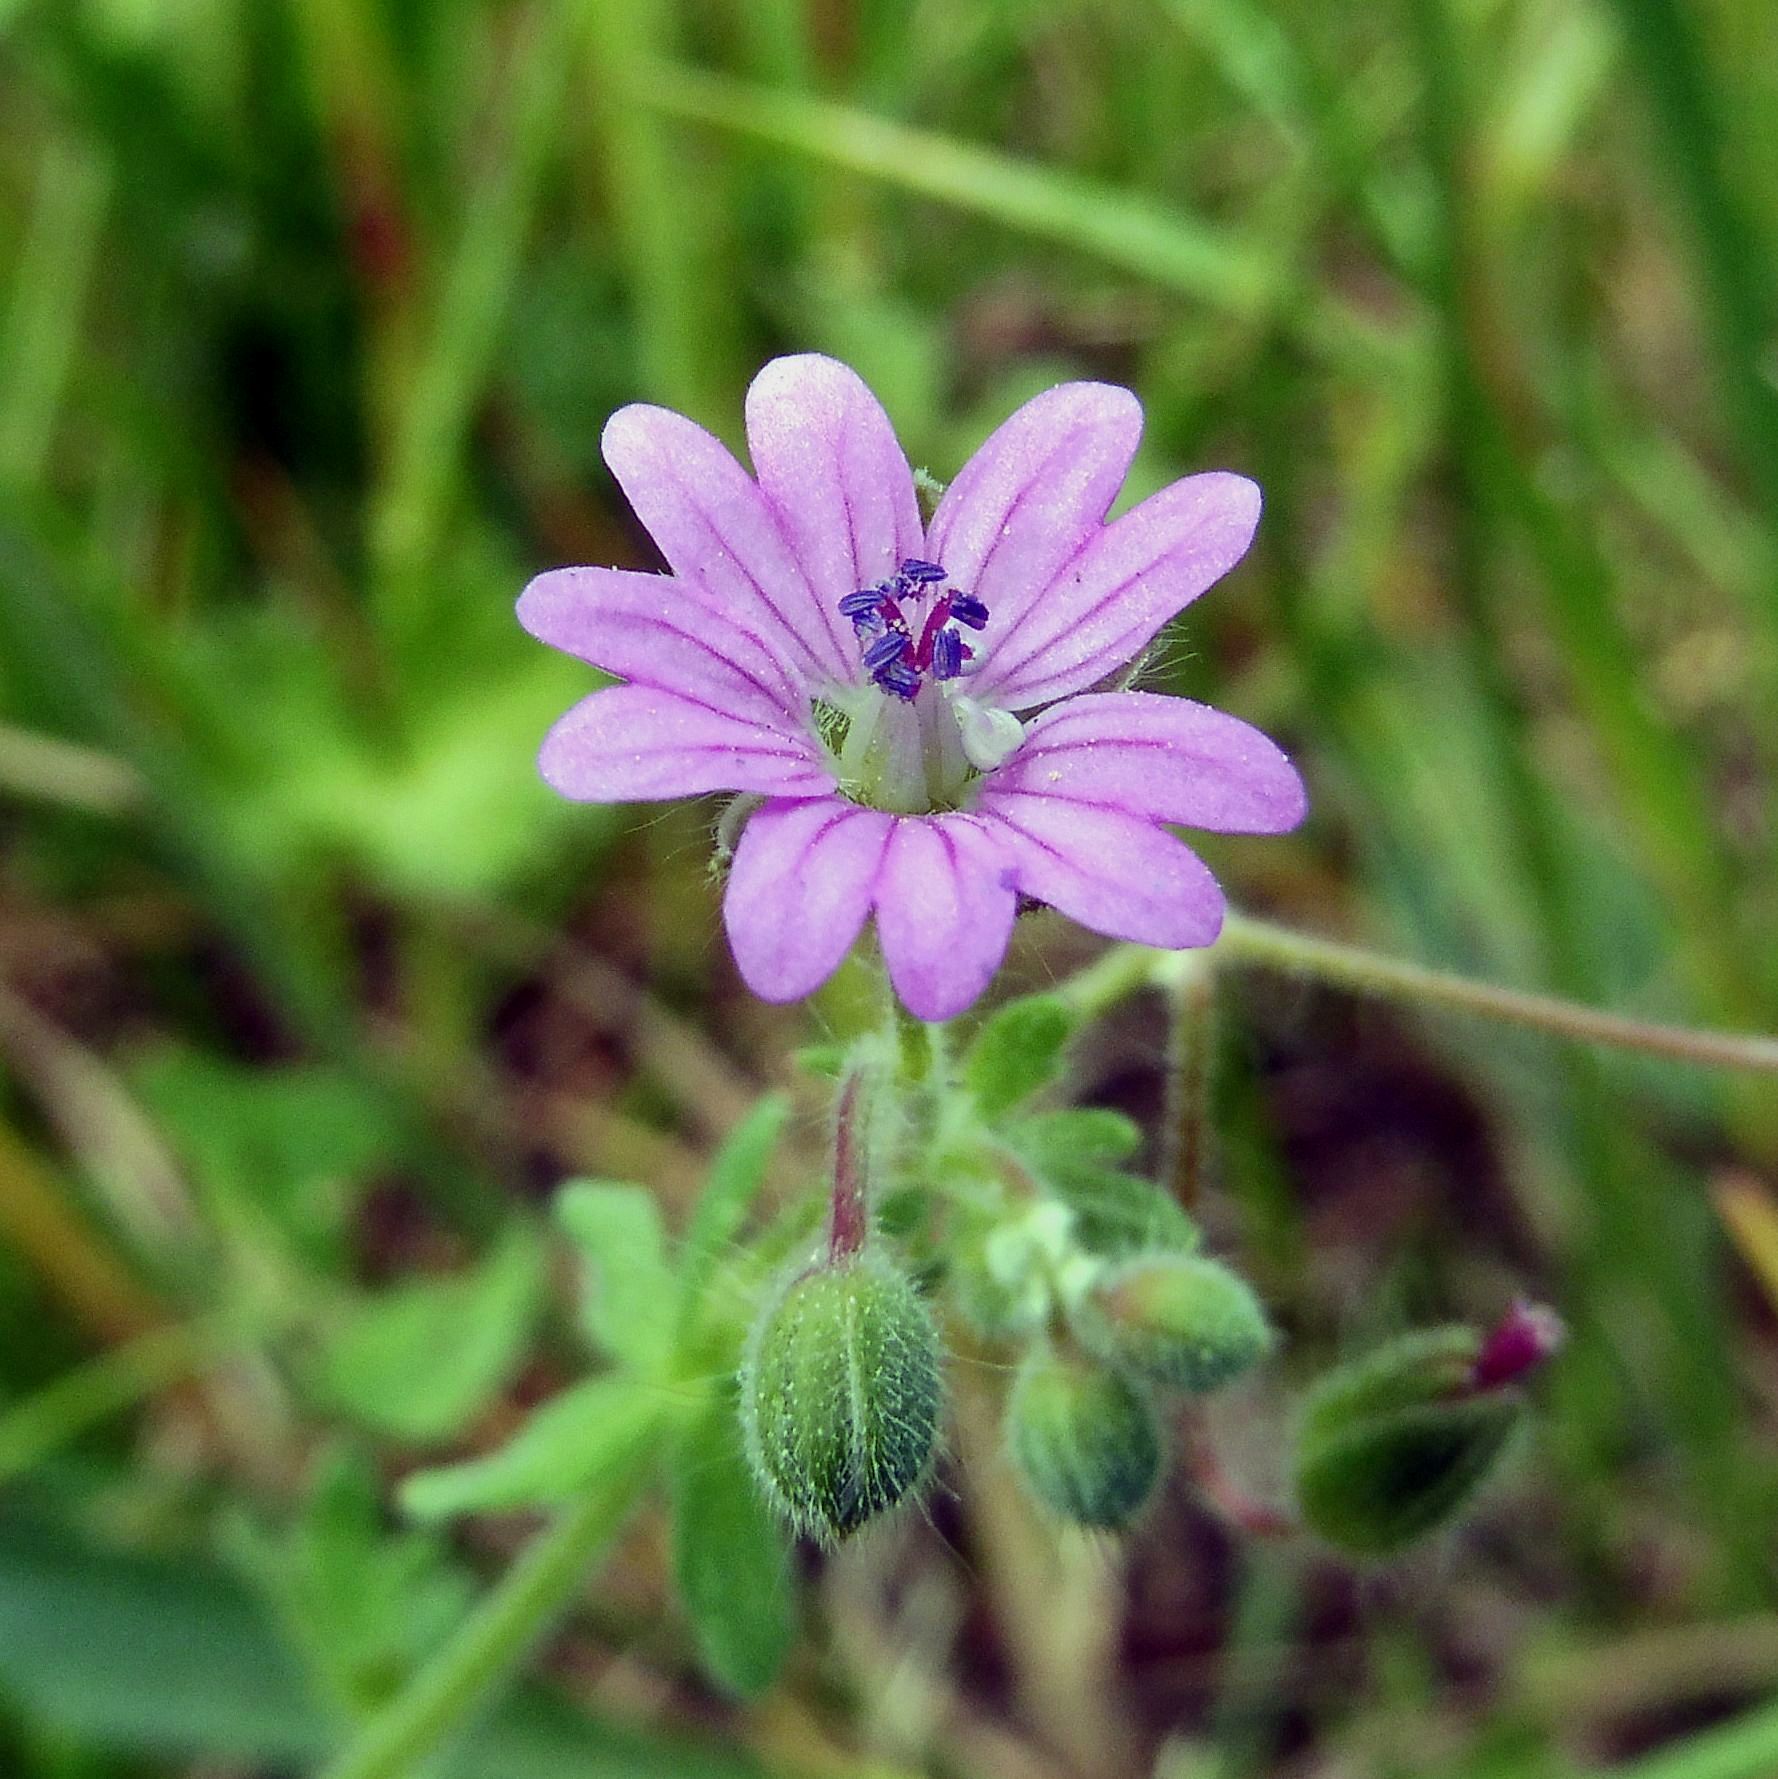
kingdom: Plantae
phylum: Tracheophyta
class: Magnoliopsida
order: Geraniales
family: Geraniaceae
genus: Geranium
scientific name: Geranium molle
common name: Dove's-foot crane's-bill
